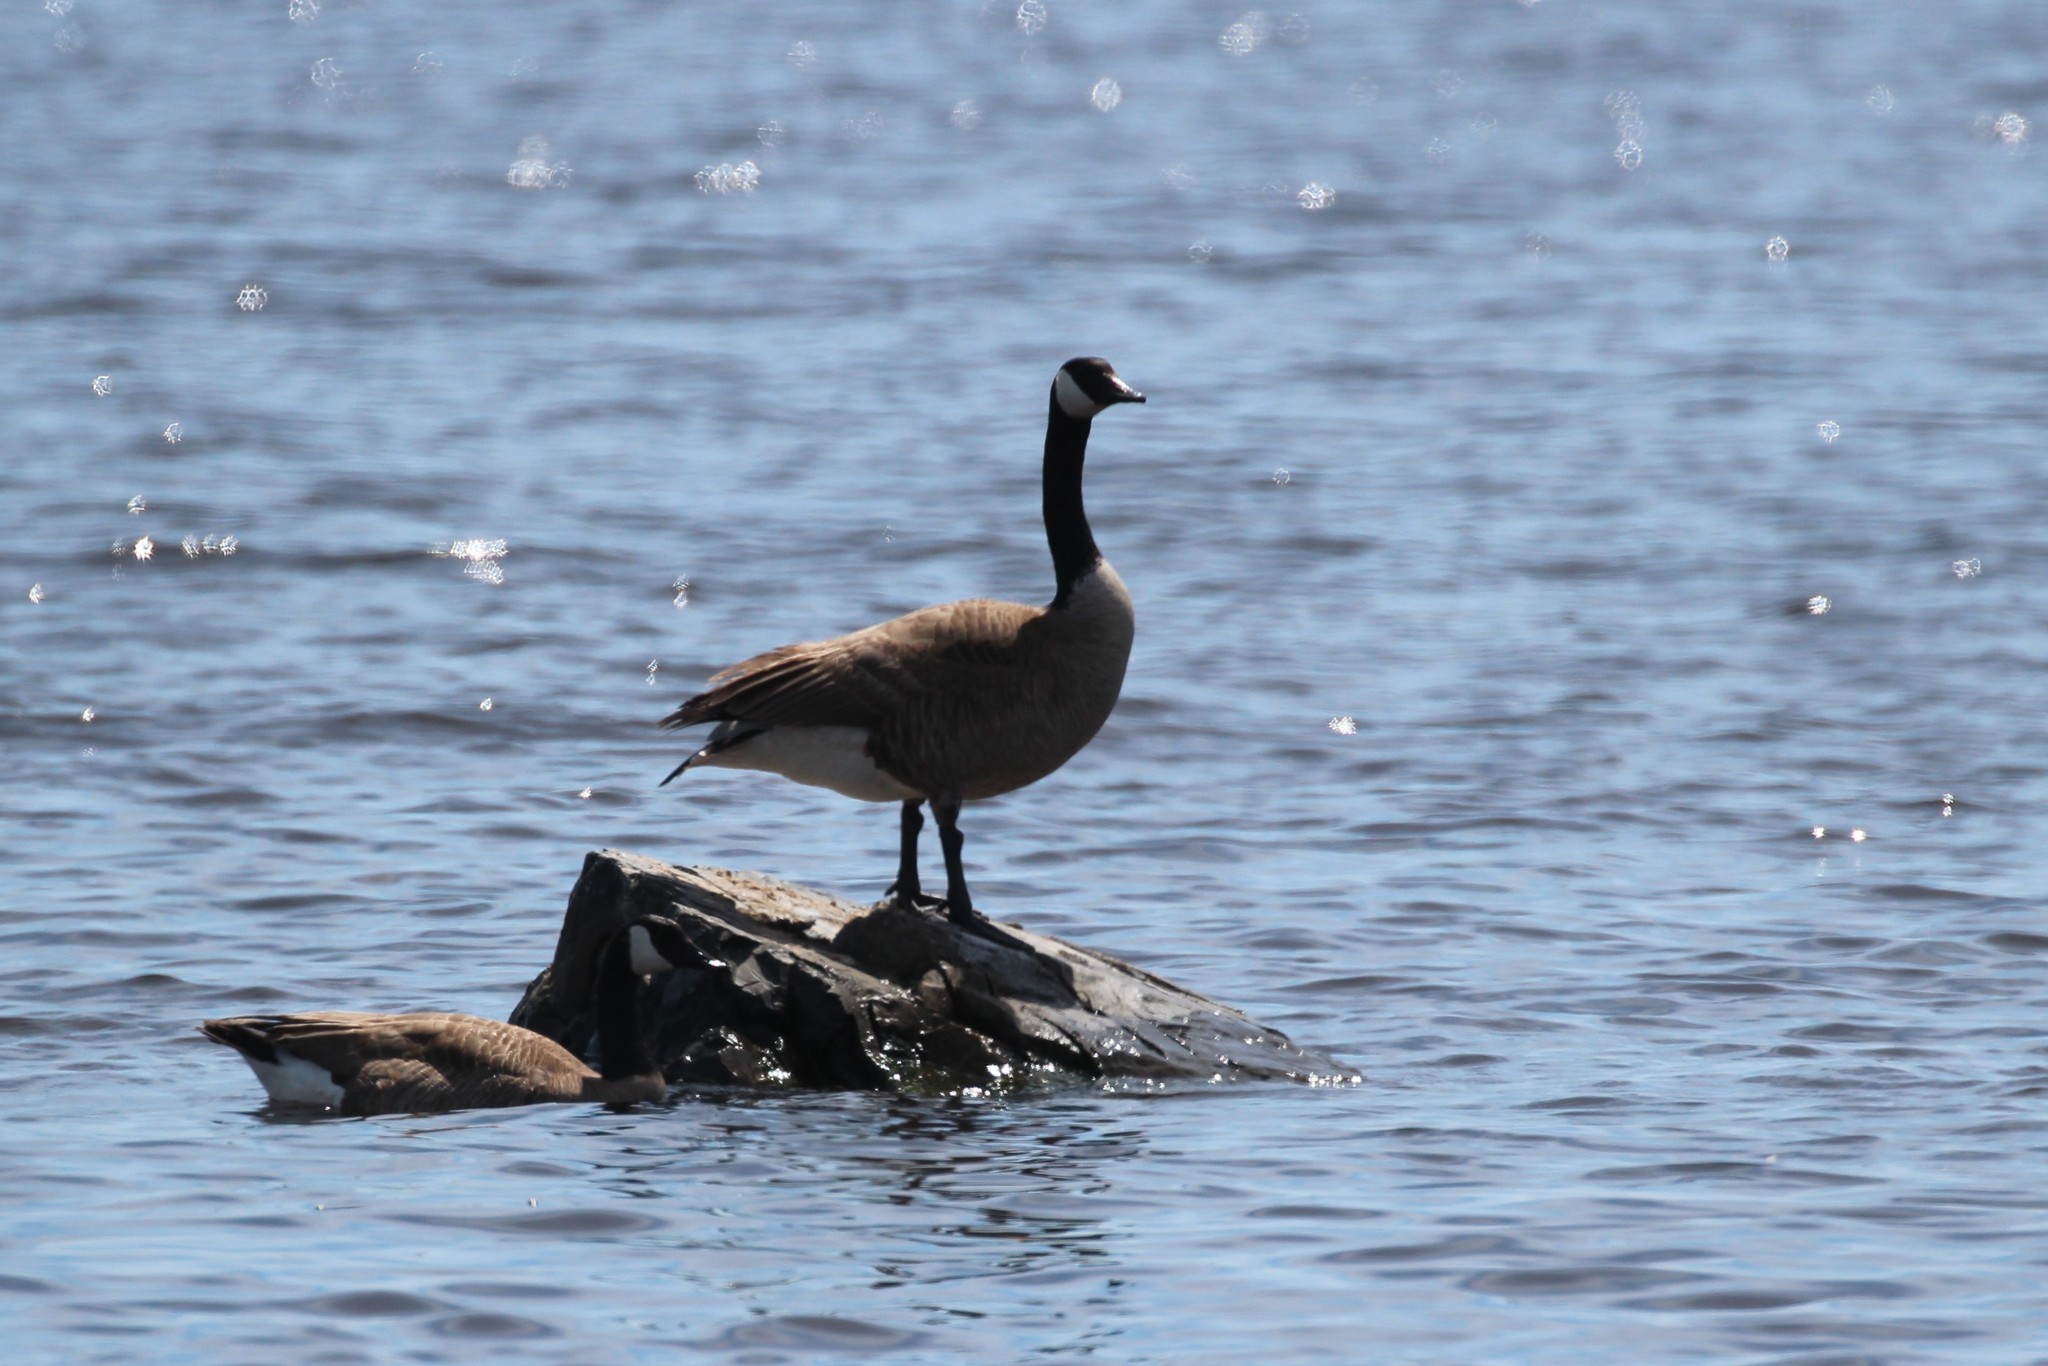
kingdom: Animalia
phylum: Chordata
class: Aves
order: Anseriformes
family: Anatidae
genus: Branta
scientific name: Branta canadensis
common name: Canada goose
